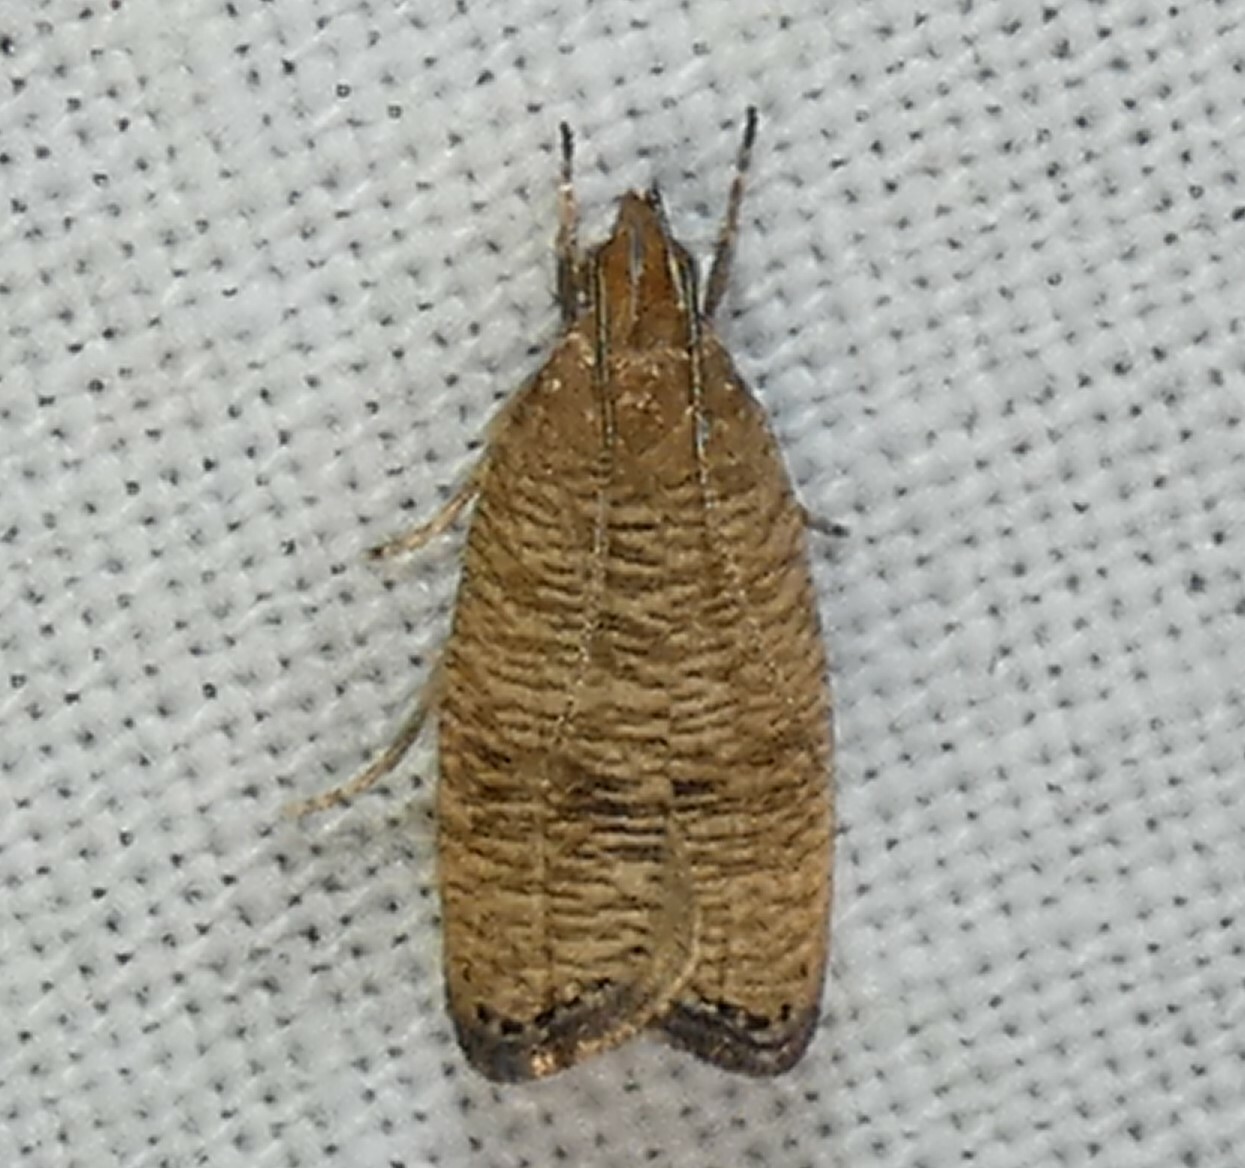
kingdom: Animalia
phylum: Arthropoda
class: Insecta
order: Lepidoptera
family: Depressariidae
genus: Psilocorsis
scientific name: Psilocorsis cryptolechiella
